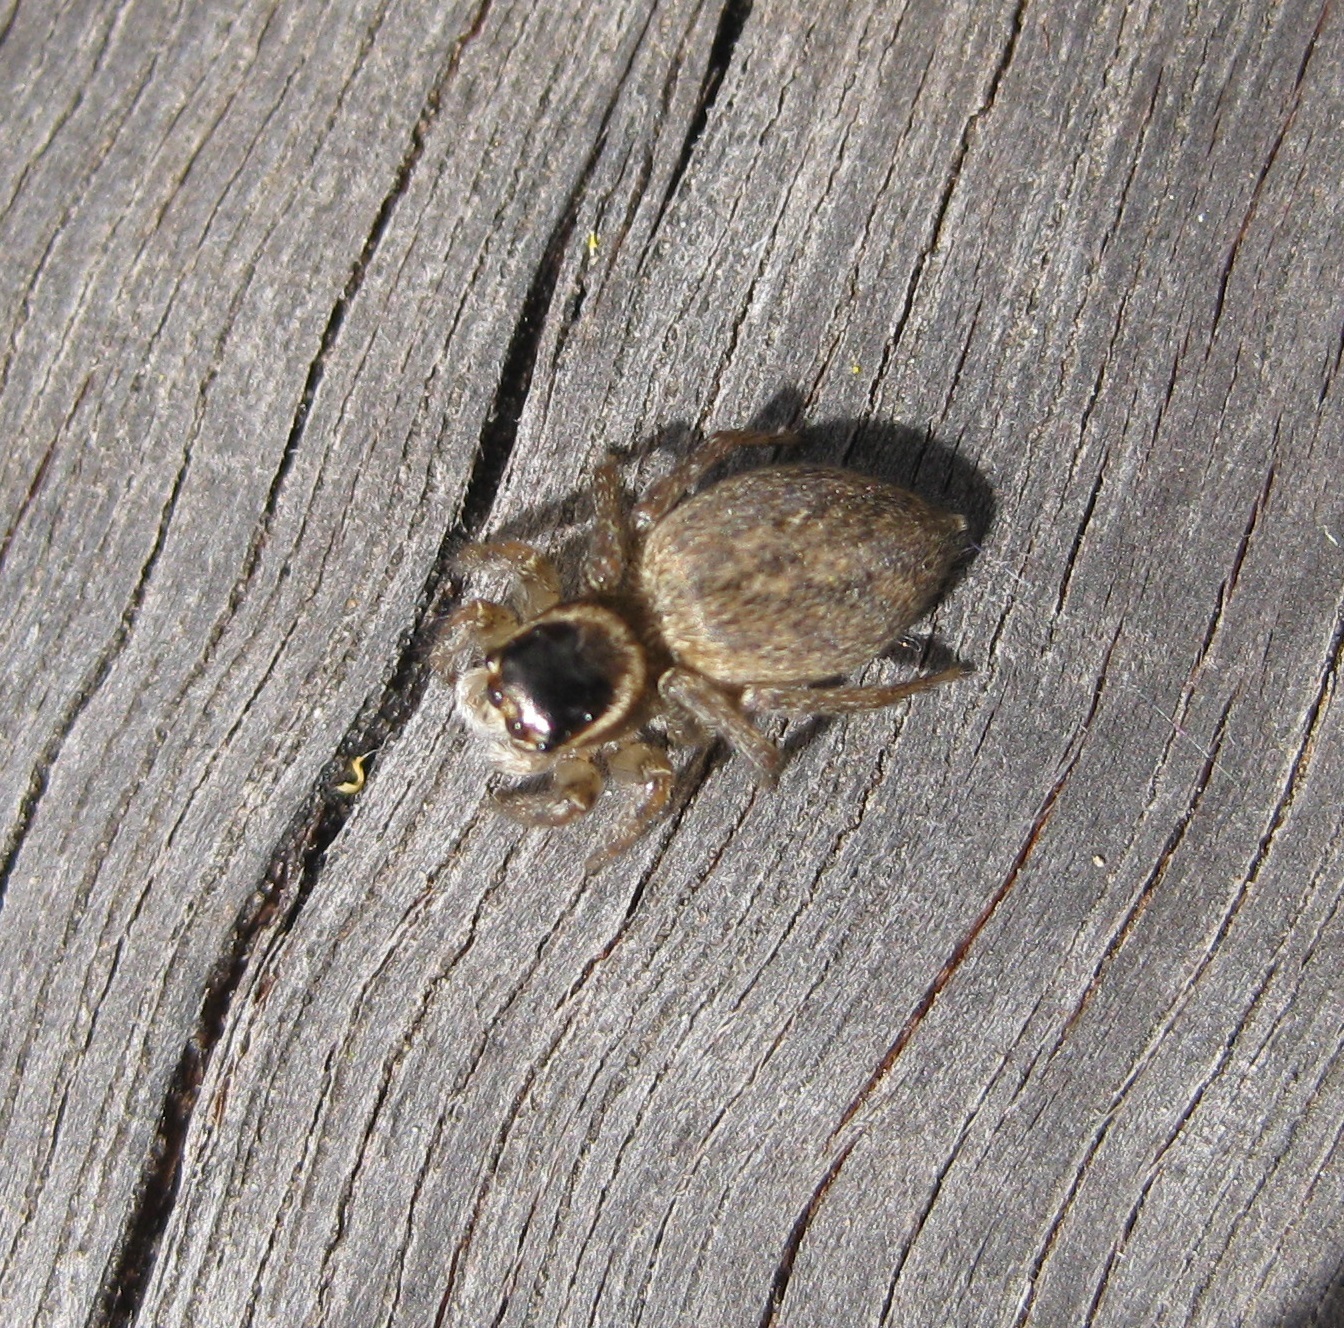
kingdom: Animalia
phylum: Arthropoda
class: Arachnida
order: Araneae
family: Salticidae
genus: Maratus
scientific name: Maratus griseus
